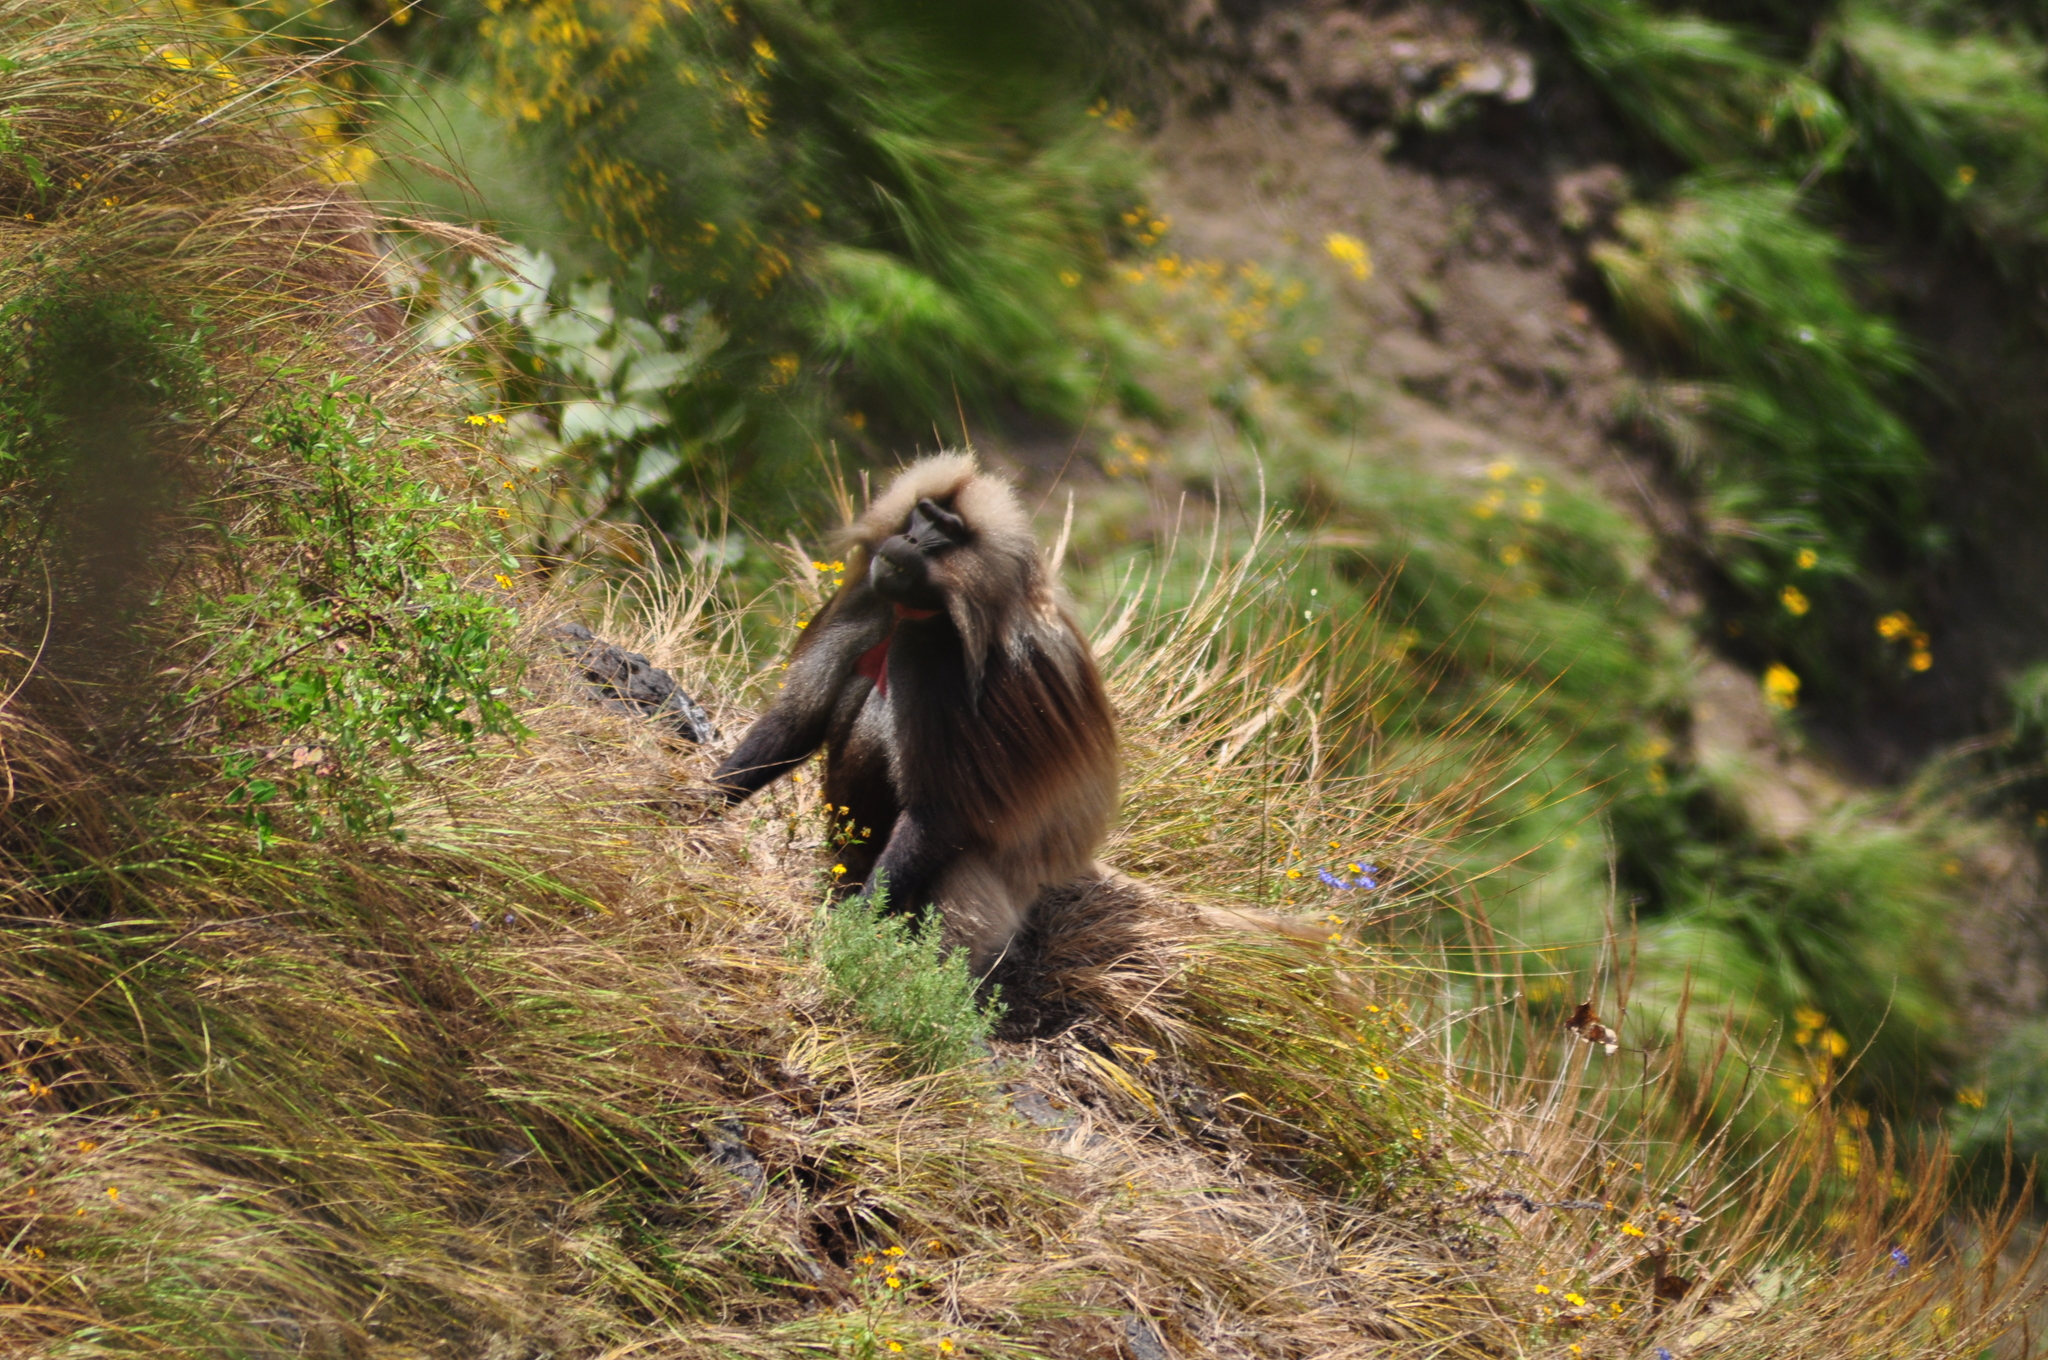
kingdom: Animalia
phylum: Chordata
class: Mammalia
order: Primates
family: Cercopithecidae
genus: Theropithecus
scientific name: Theropithecus gelada
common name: Gelada
